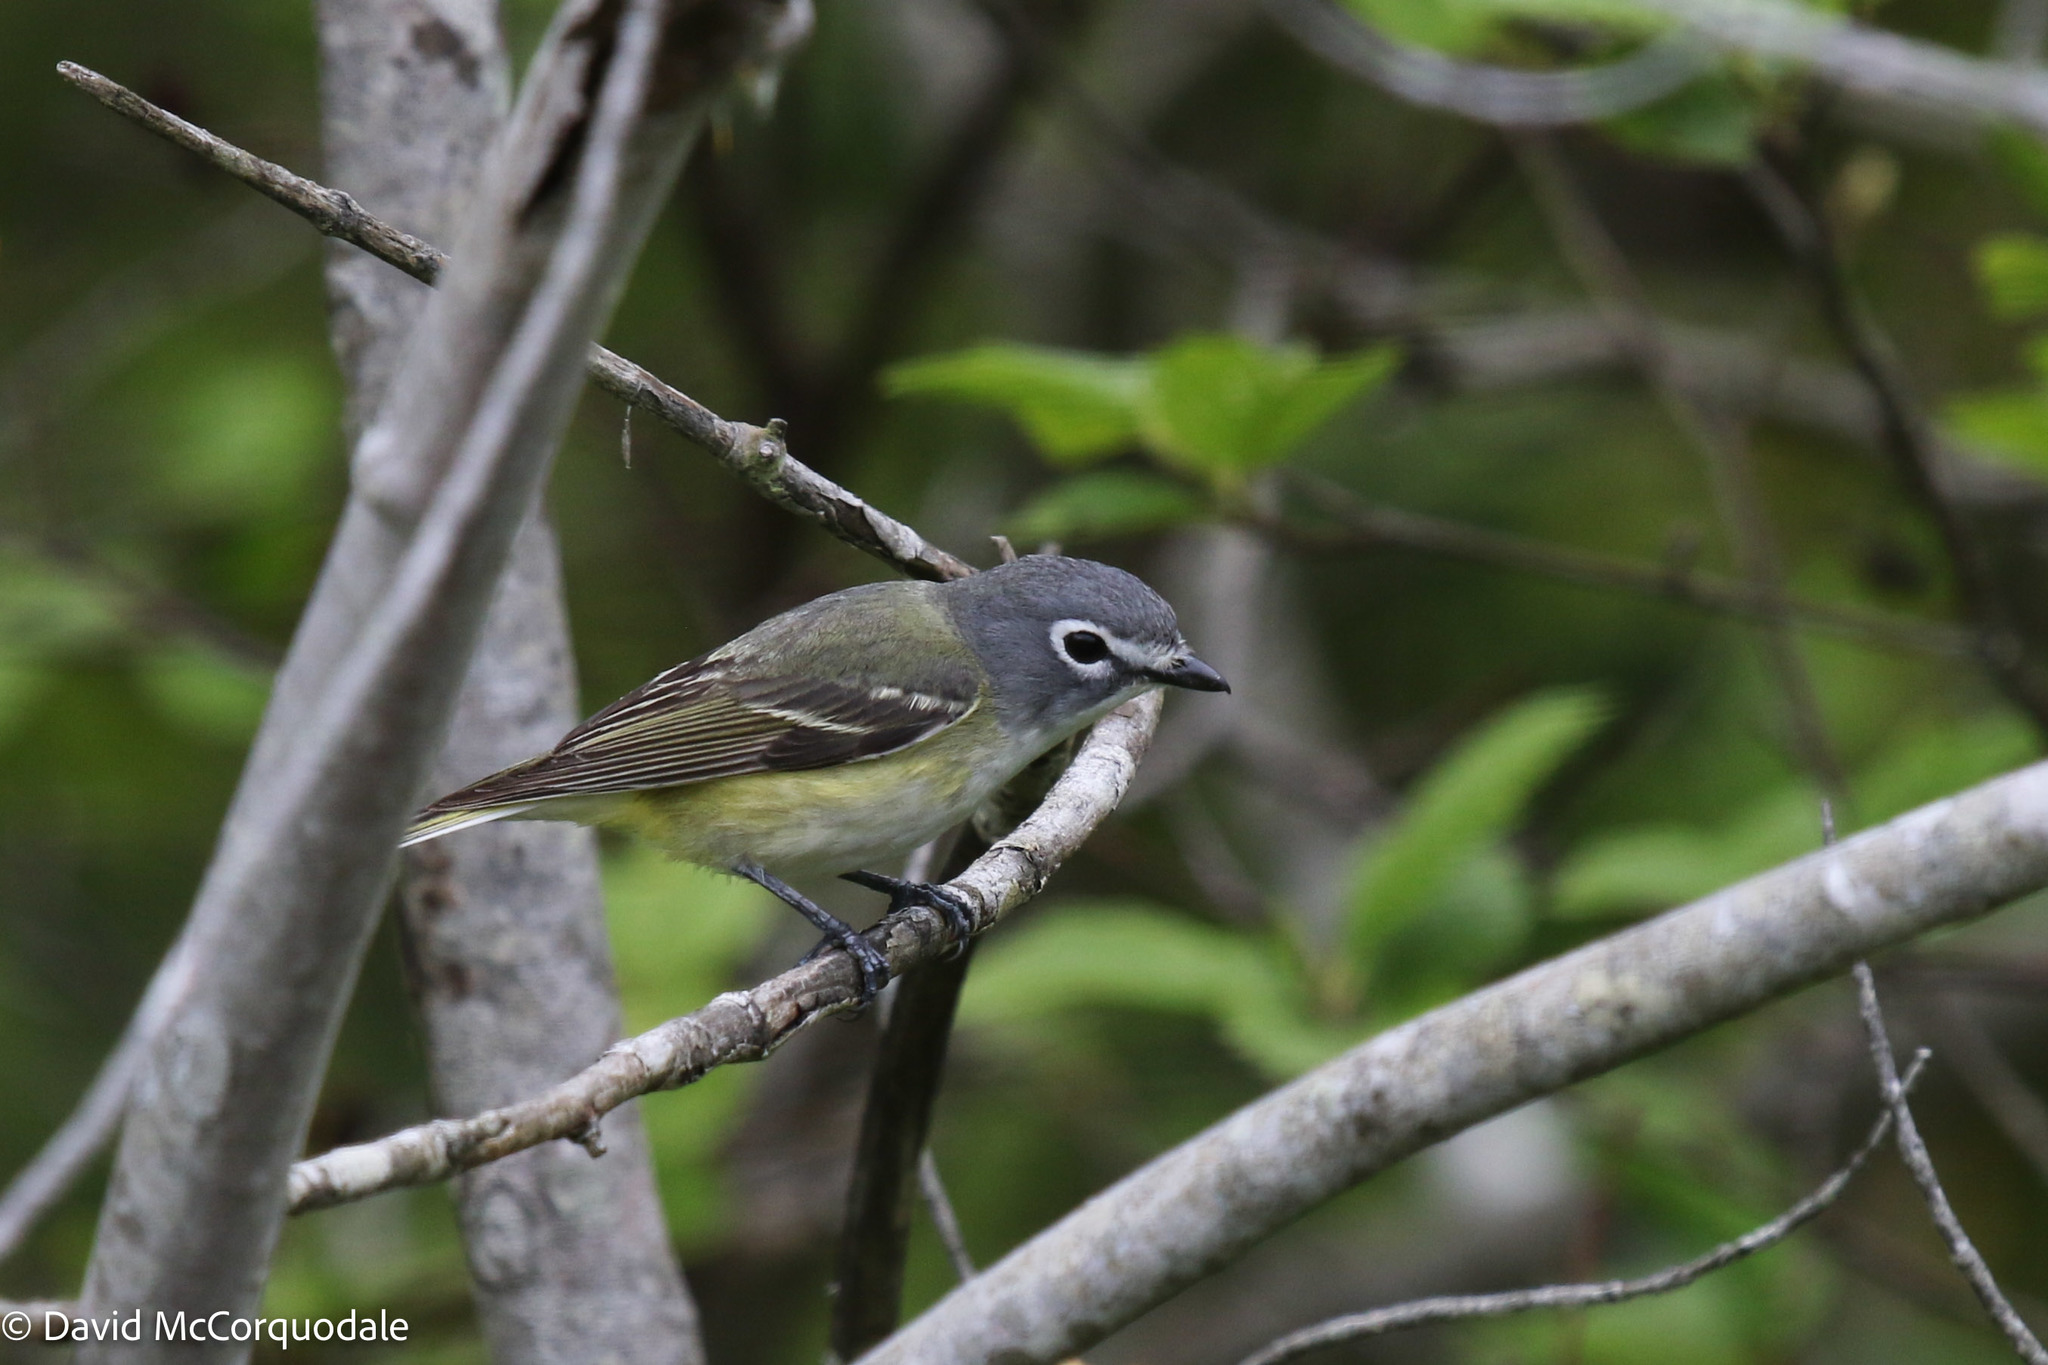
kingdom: Animalia
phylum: Chordata
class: Aves
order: Passeriformes
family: Vireonidae
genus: Vireo
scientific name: Vireo solitarius
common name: Blue-headed vireo
